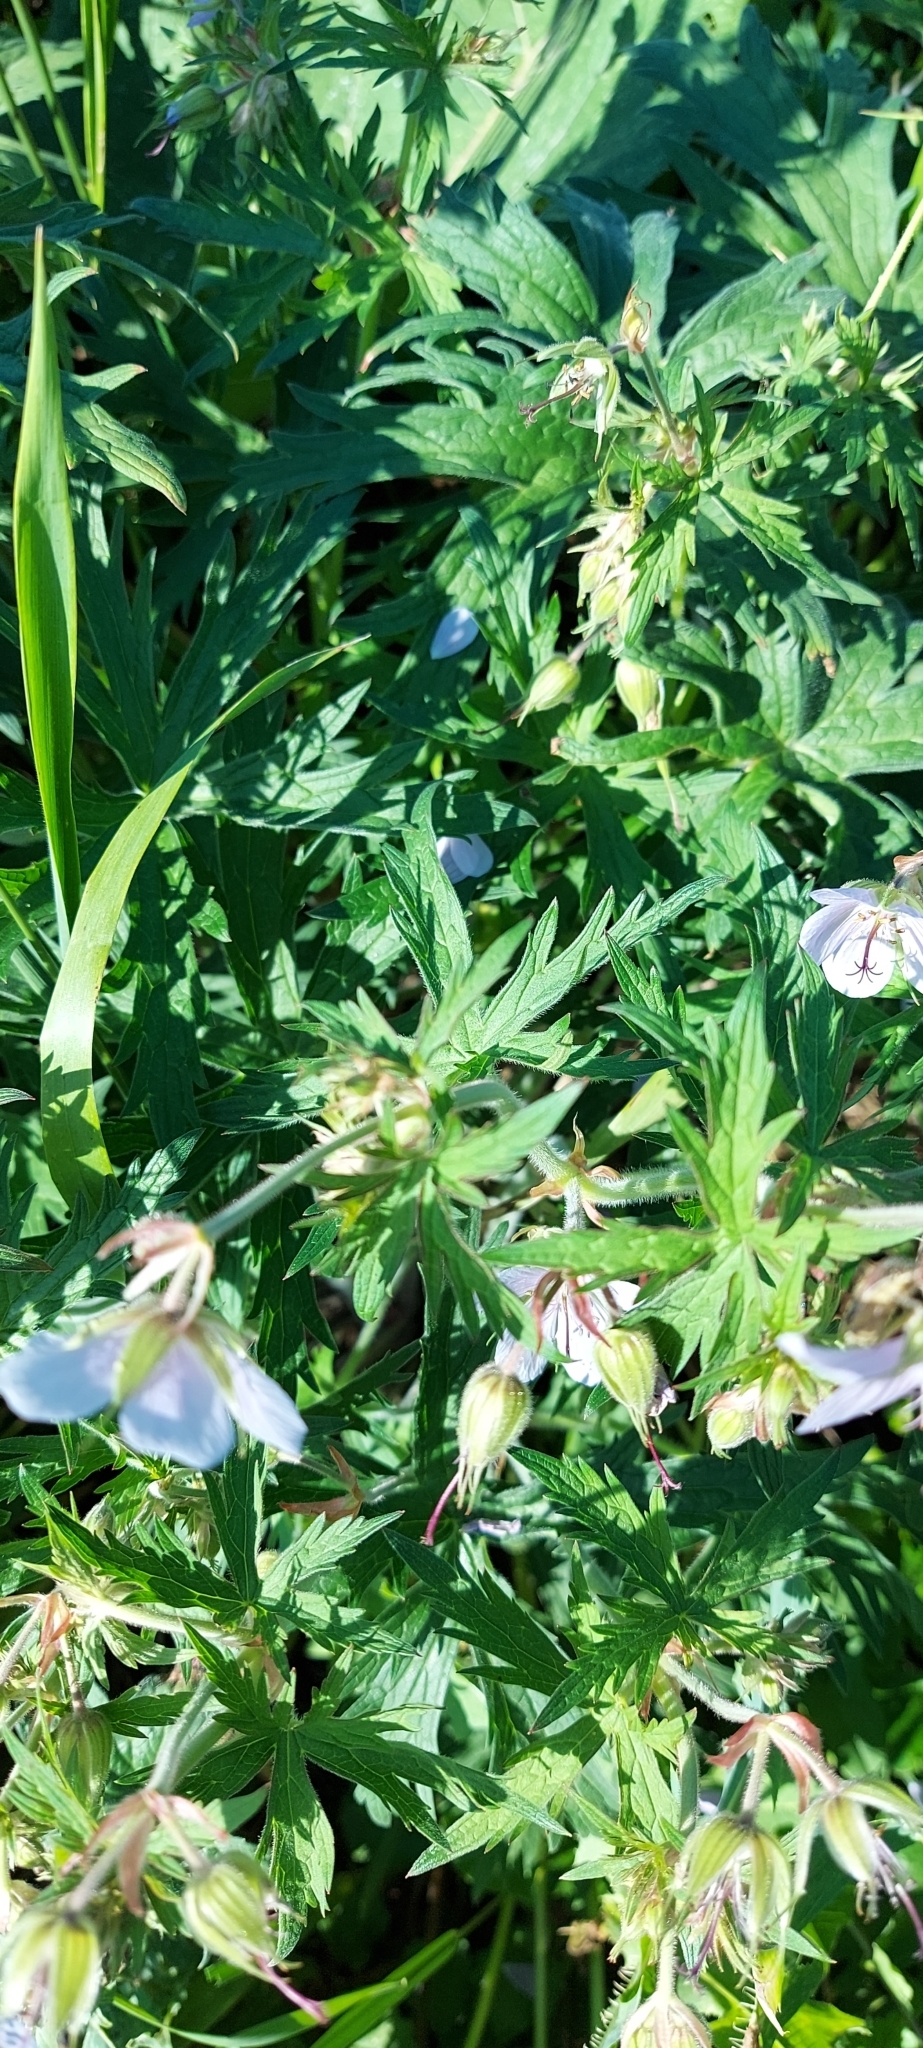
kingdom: Plantae
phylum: Tracheophyta
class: Magnoliopsida
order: Geraniales
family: Geraniaceae
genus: Geranium
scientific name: Geranium pratense
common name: Meadow crane's-bill
